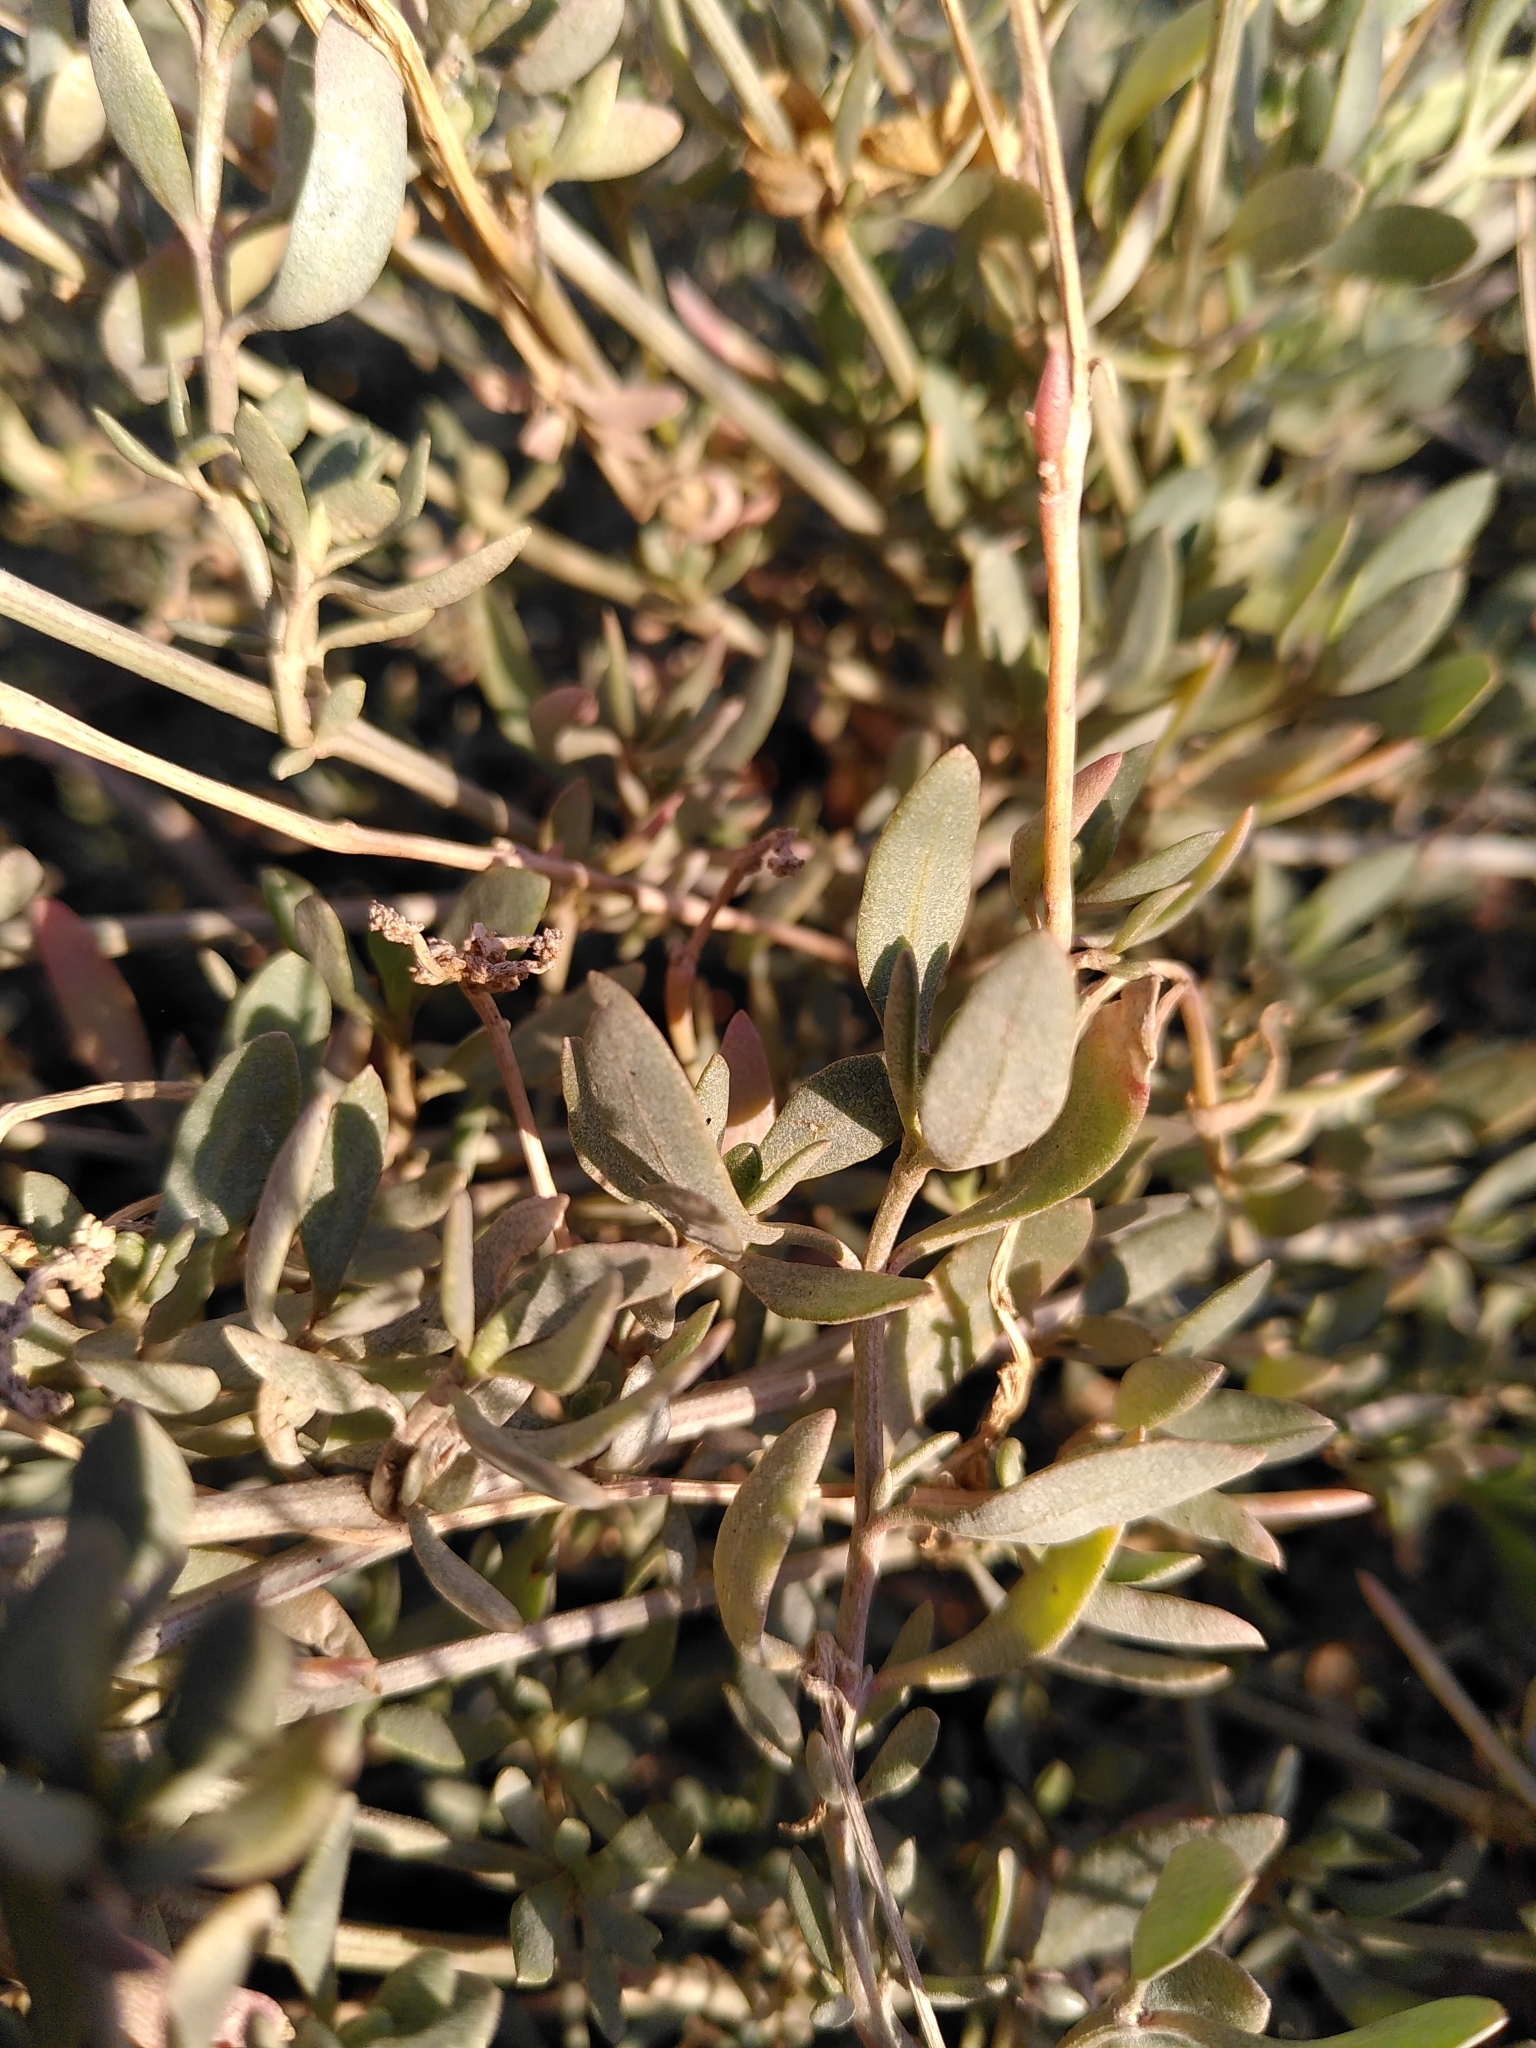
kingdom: Plantae
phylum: Tracheophyta
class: Magnoliopsida
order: Caryophyllales
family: Amaranthaceae
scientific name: Amaranthaceae
